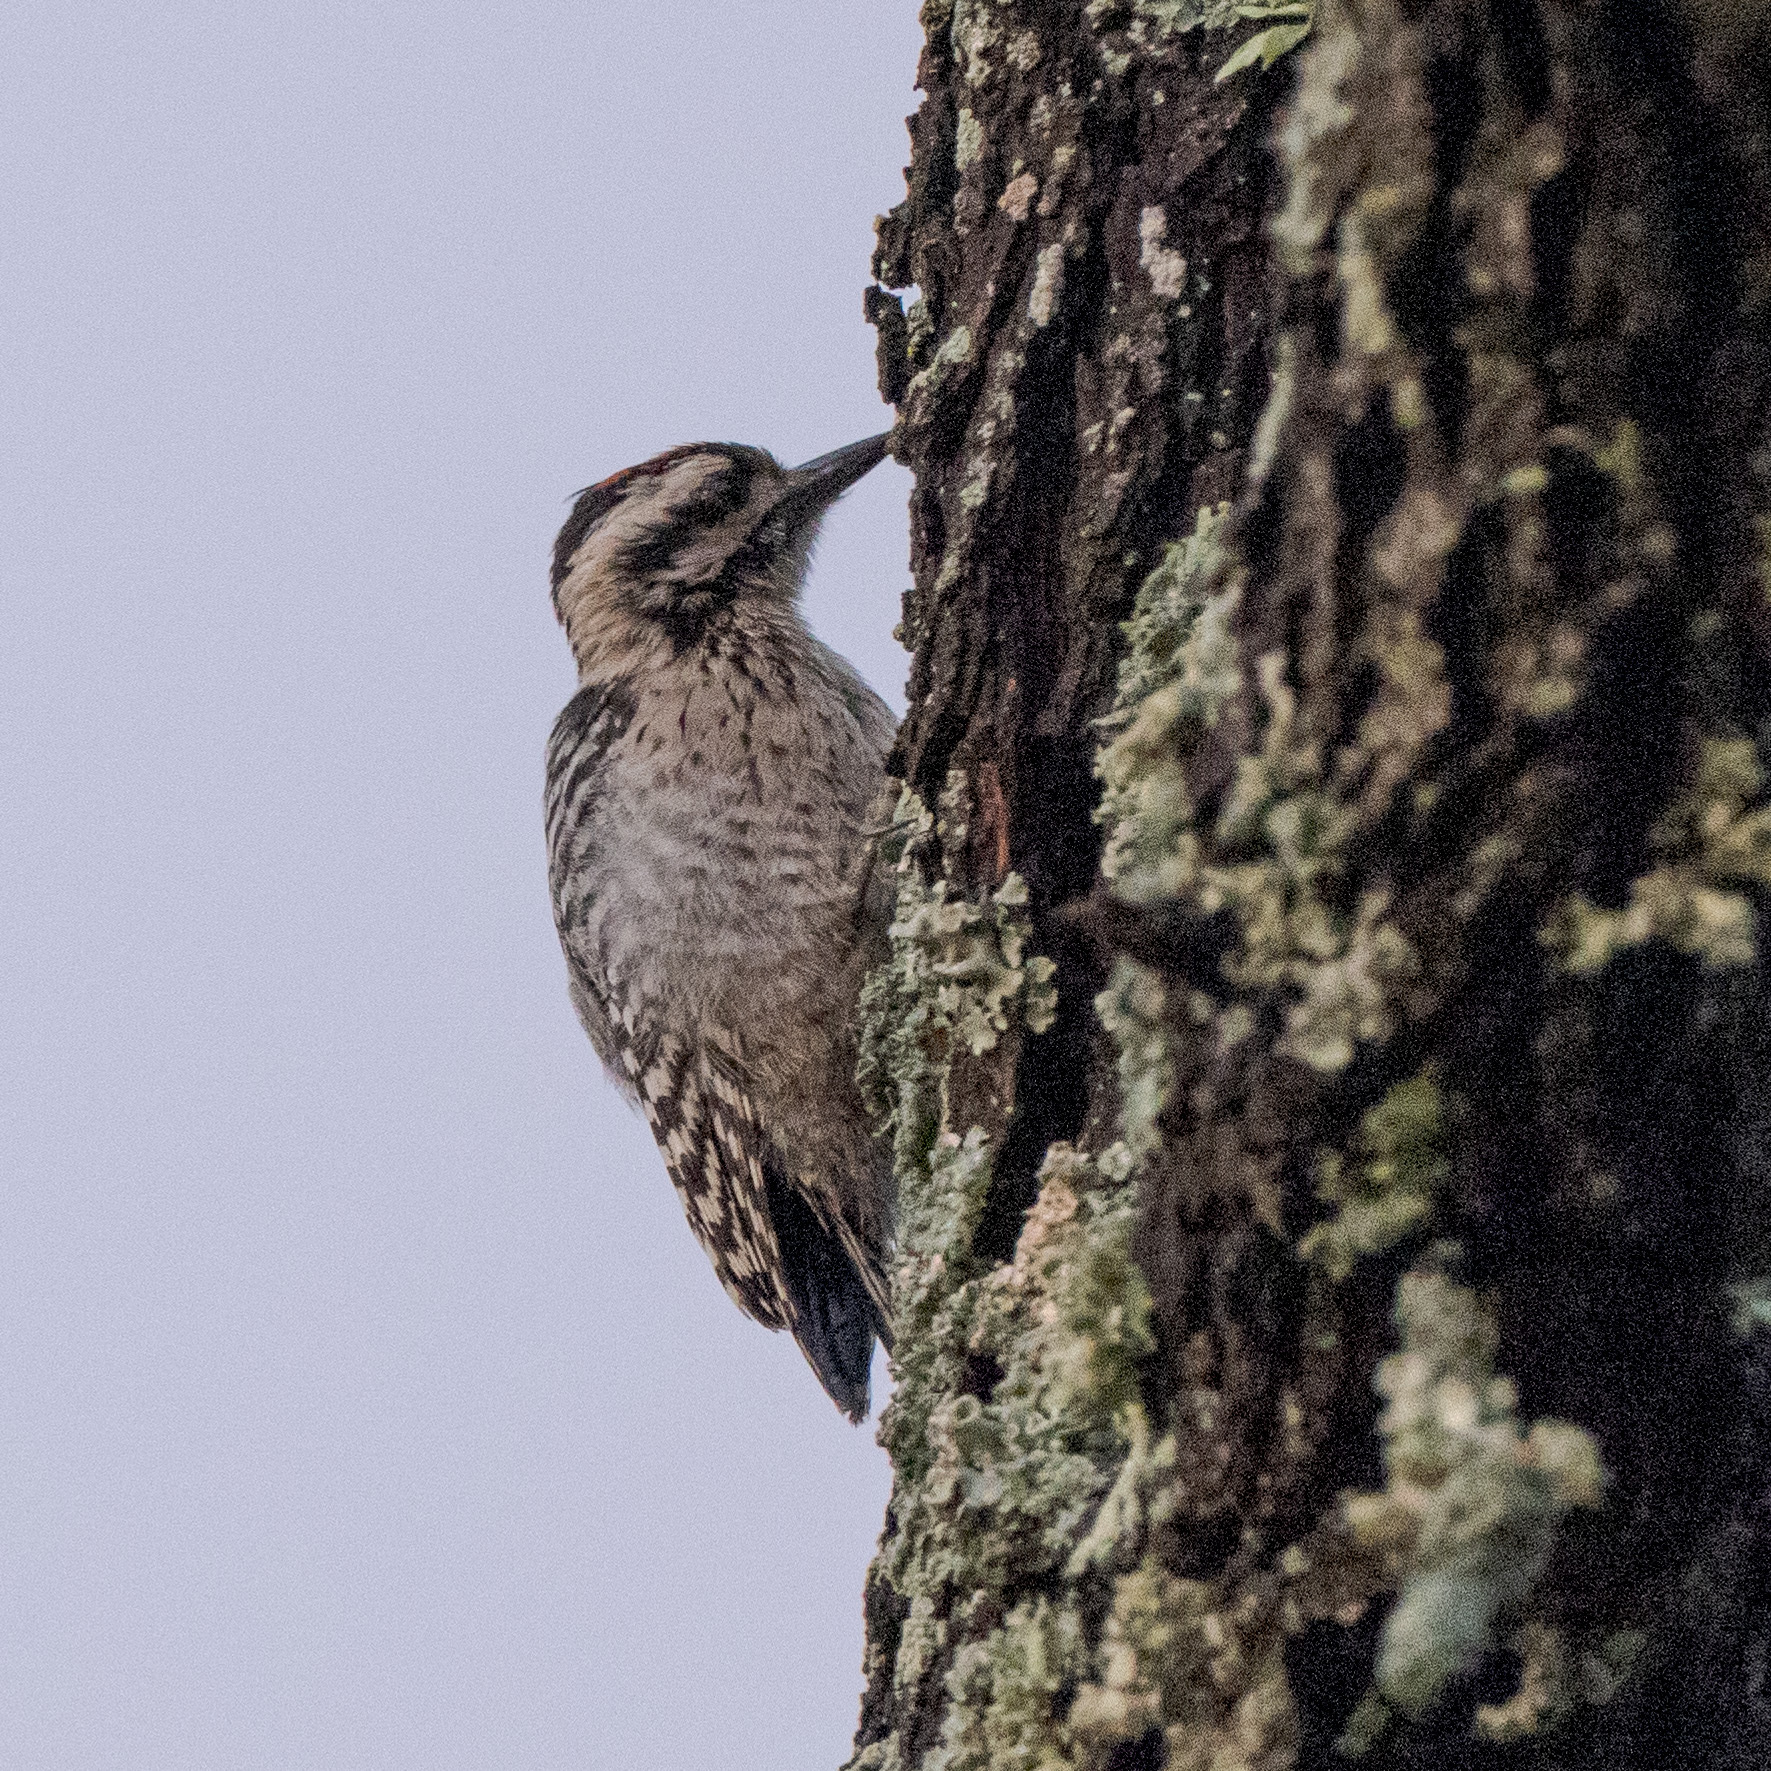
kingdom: Animalia
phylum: Chordata
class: Aves
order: Piciformes
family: Picidae
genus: Dryobates
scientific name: Dryobates scalaris
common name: Ladder-backed woodpecker
